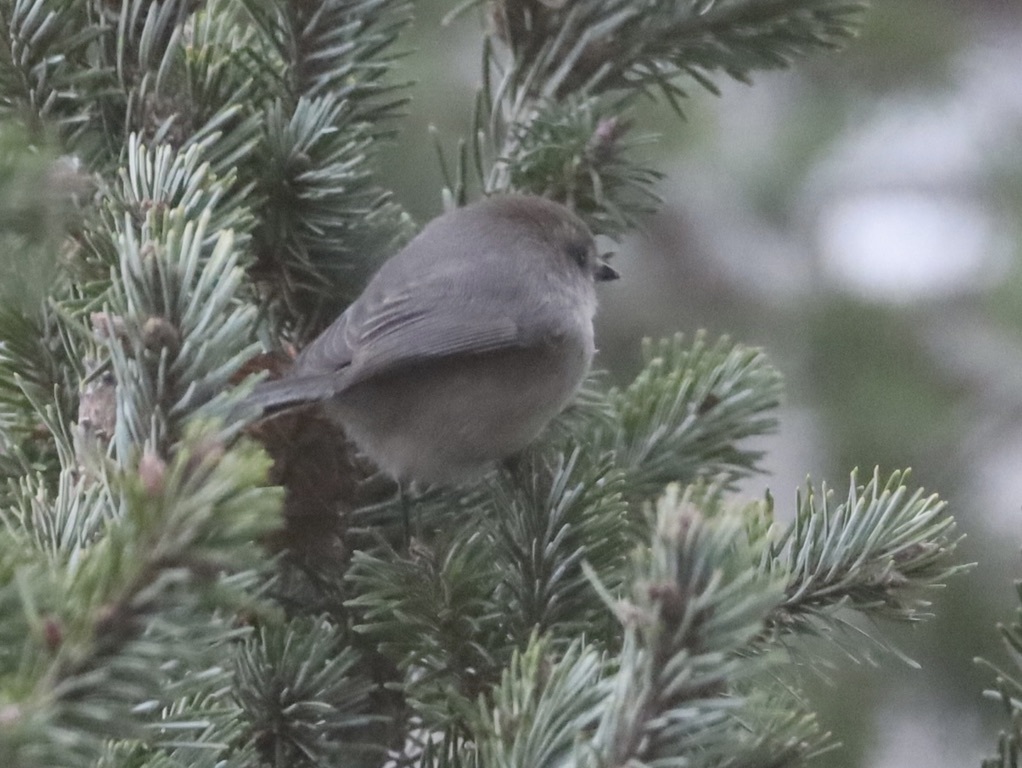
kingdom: Animalia
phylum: Chordata
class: Aves
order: Passeriformes
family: Aegithalidae
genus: Psaltriparus
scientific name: Psaltriparus minimus
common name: American bushtit
